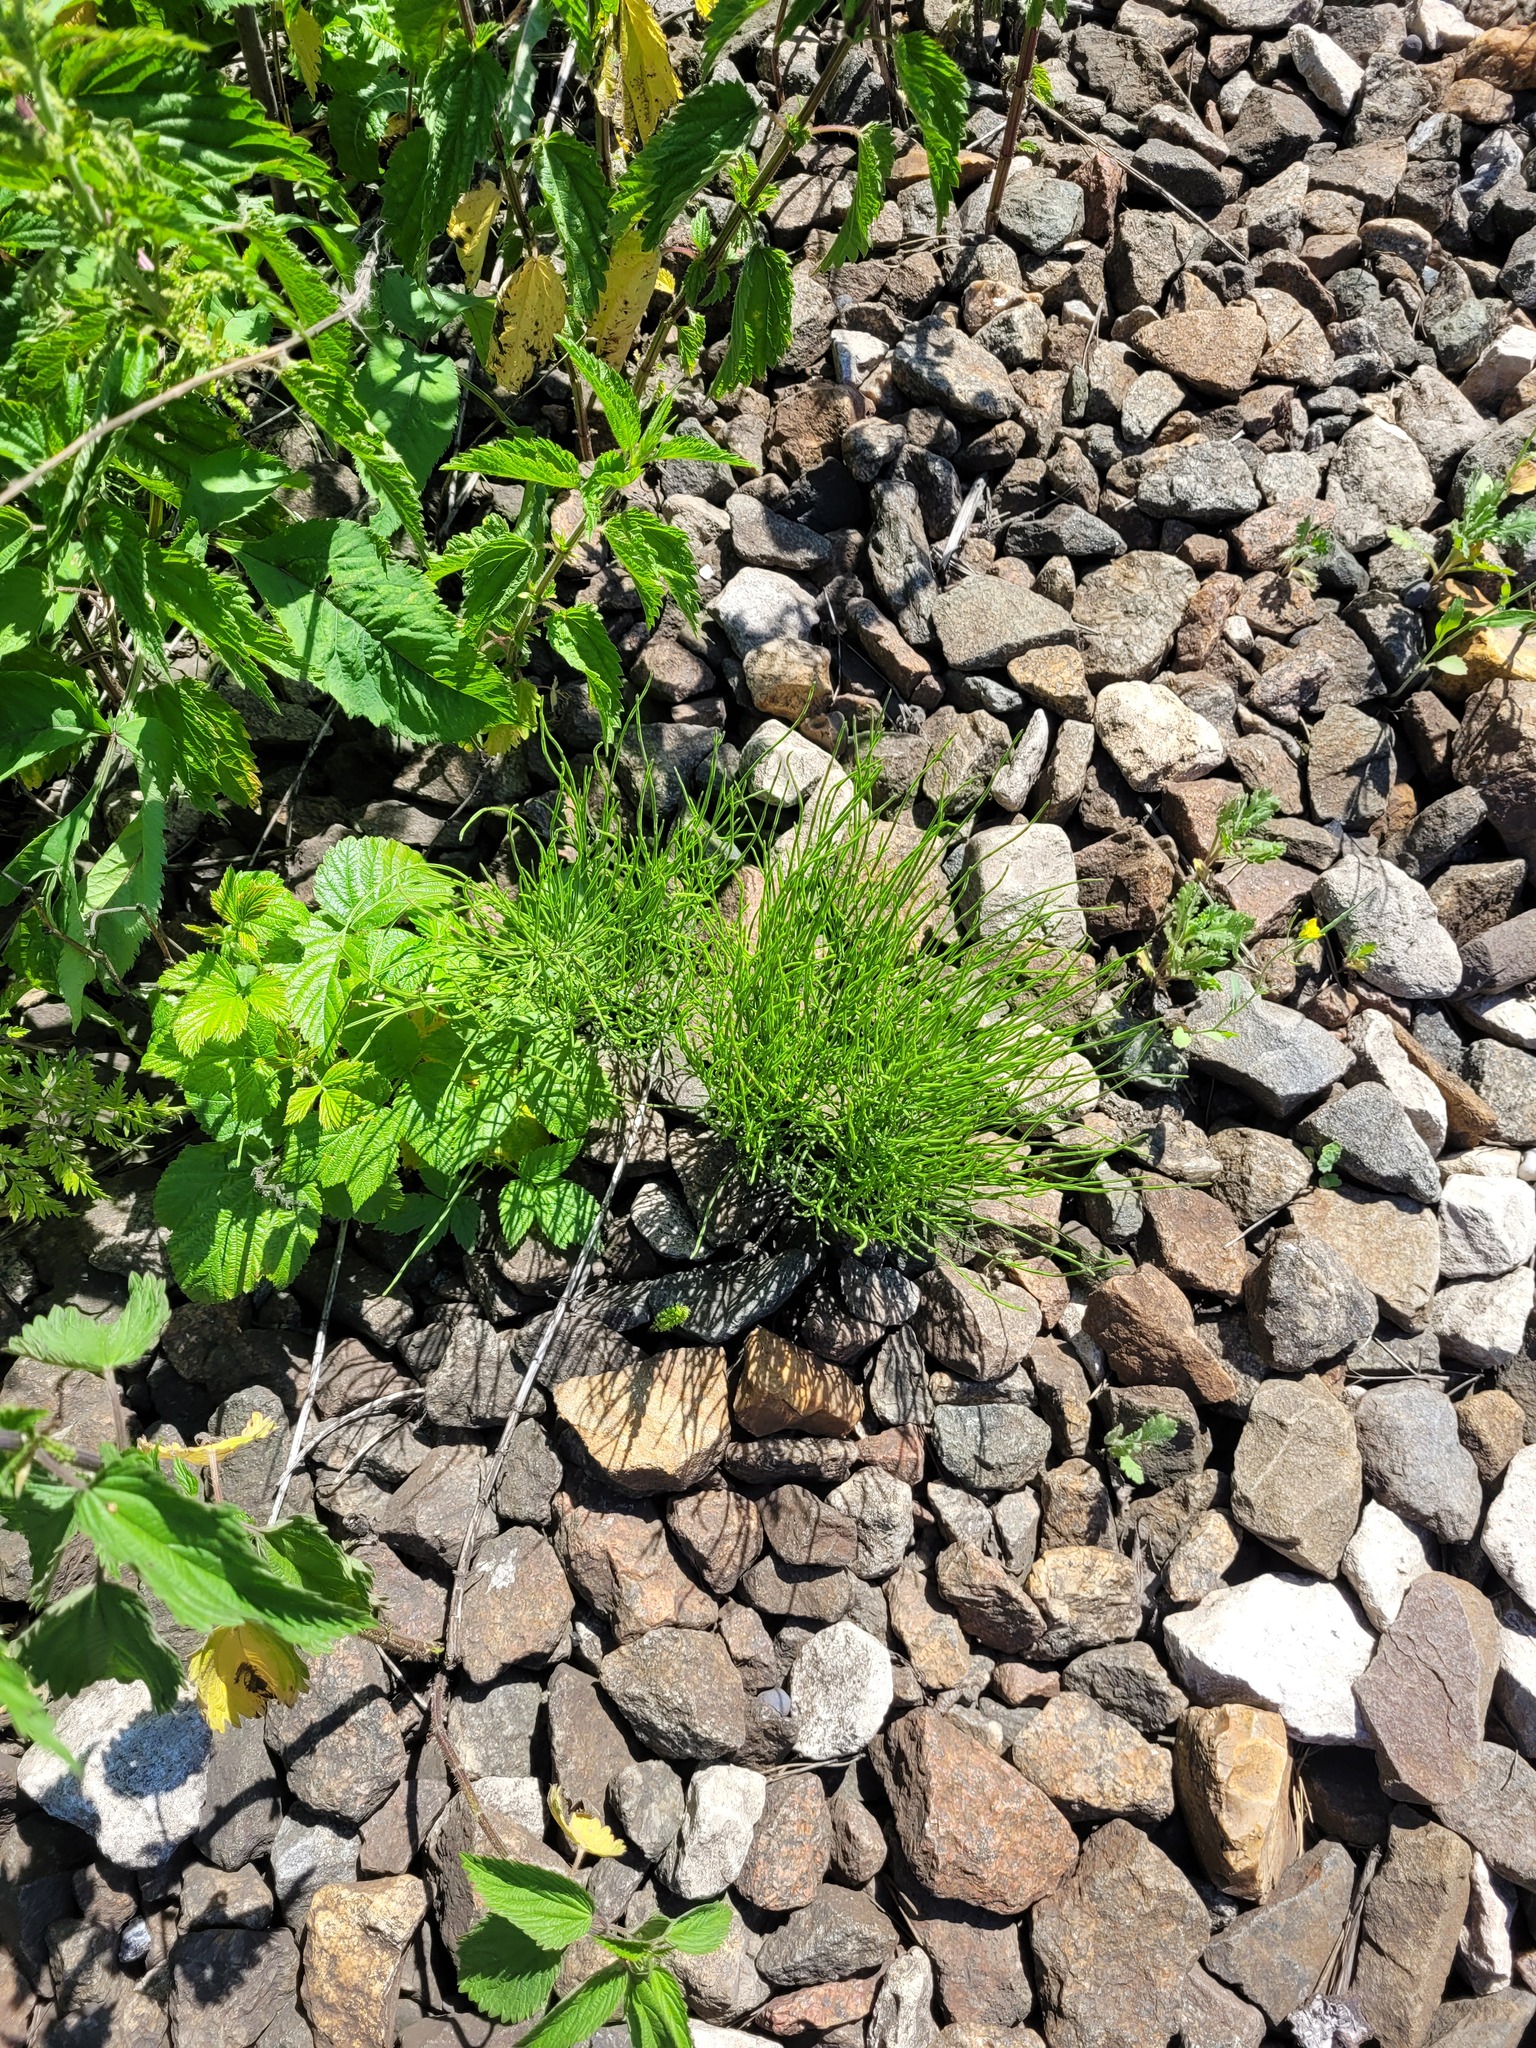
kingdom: Plantae
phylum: Tracheophyta
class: Polypodiopsida
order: Equisetales
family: Equisetaceae
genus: Equisetum
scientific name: Equisetum arvense
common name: Field horsetail
